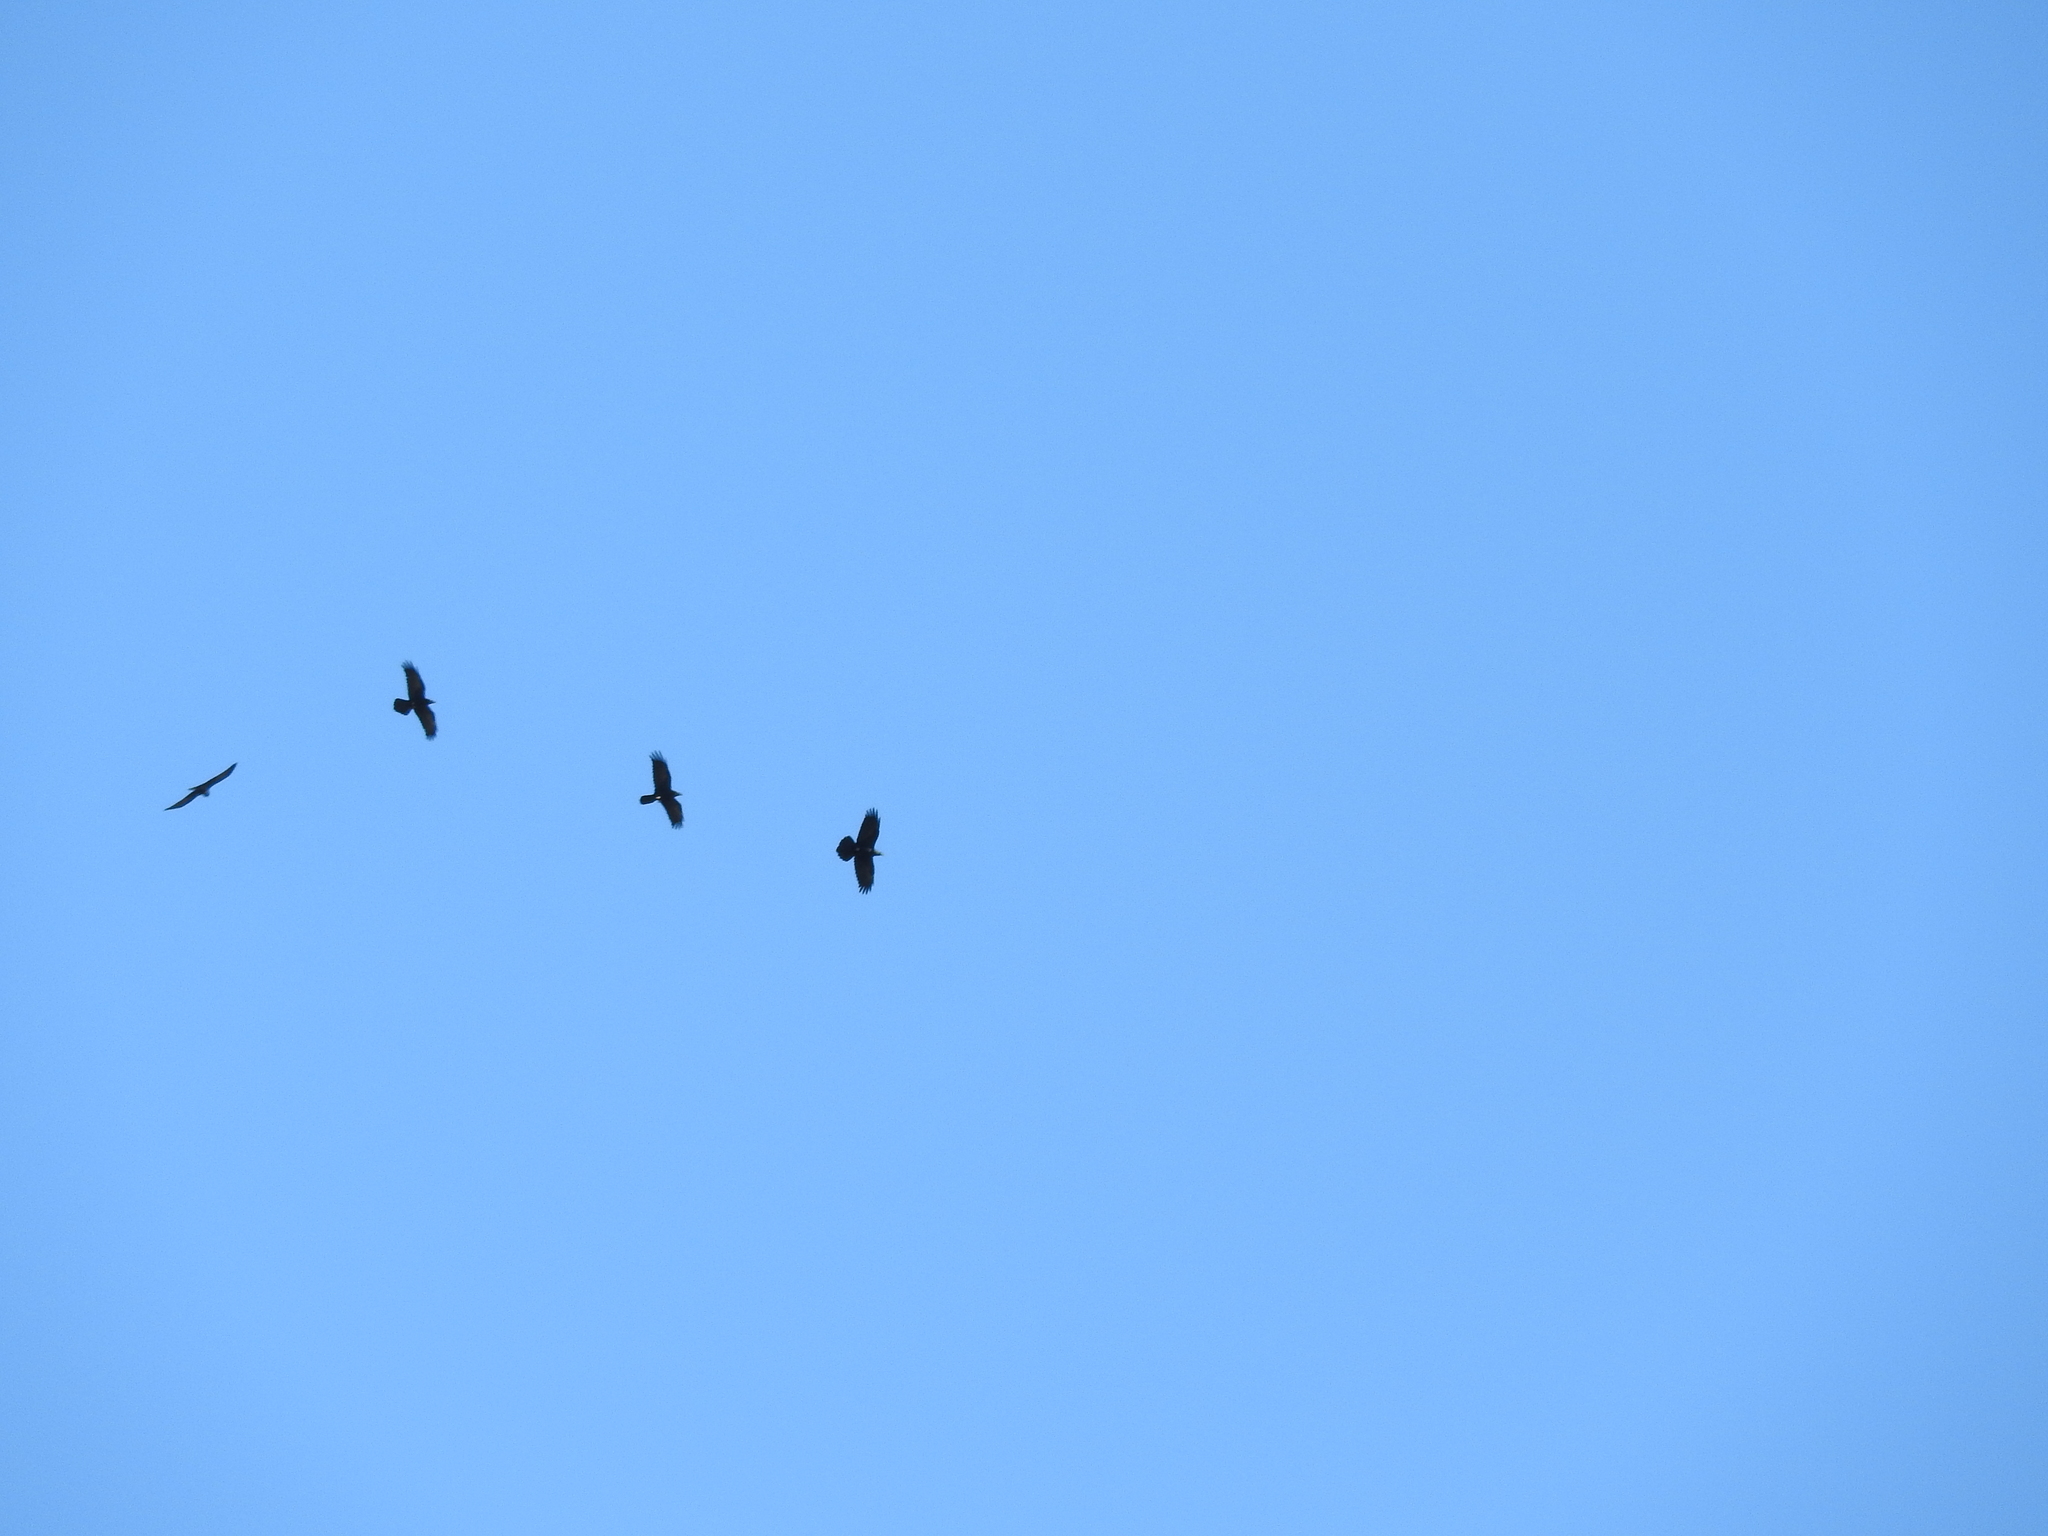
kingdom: Animalia
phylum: Chordata
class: Aves
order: Passeriformes
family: Corvidae
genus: Corvus
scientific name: Corvus corax
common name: Common raven
